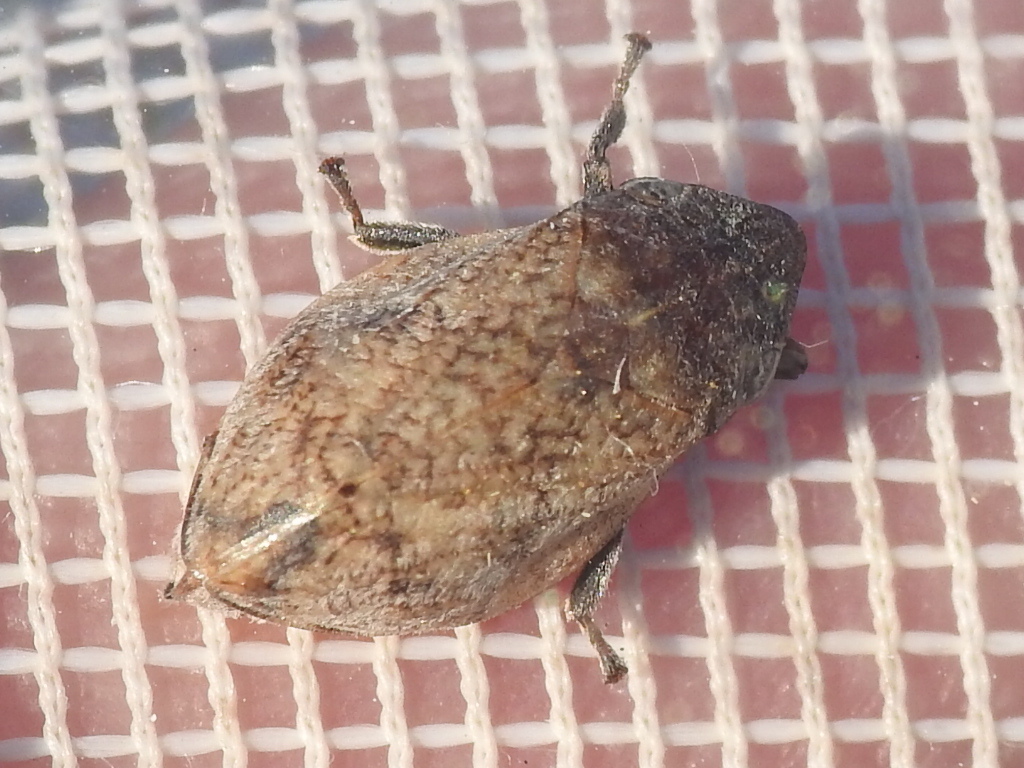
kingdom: Animalia
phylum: Arthropoda
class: Insecta
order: Hemiptera
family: Aphrophoridae
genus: Lepyronia
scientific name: Lepyronia gibbosa
